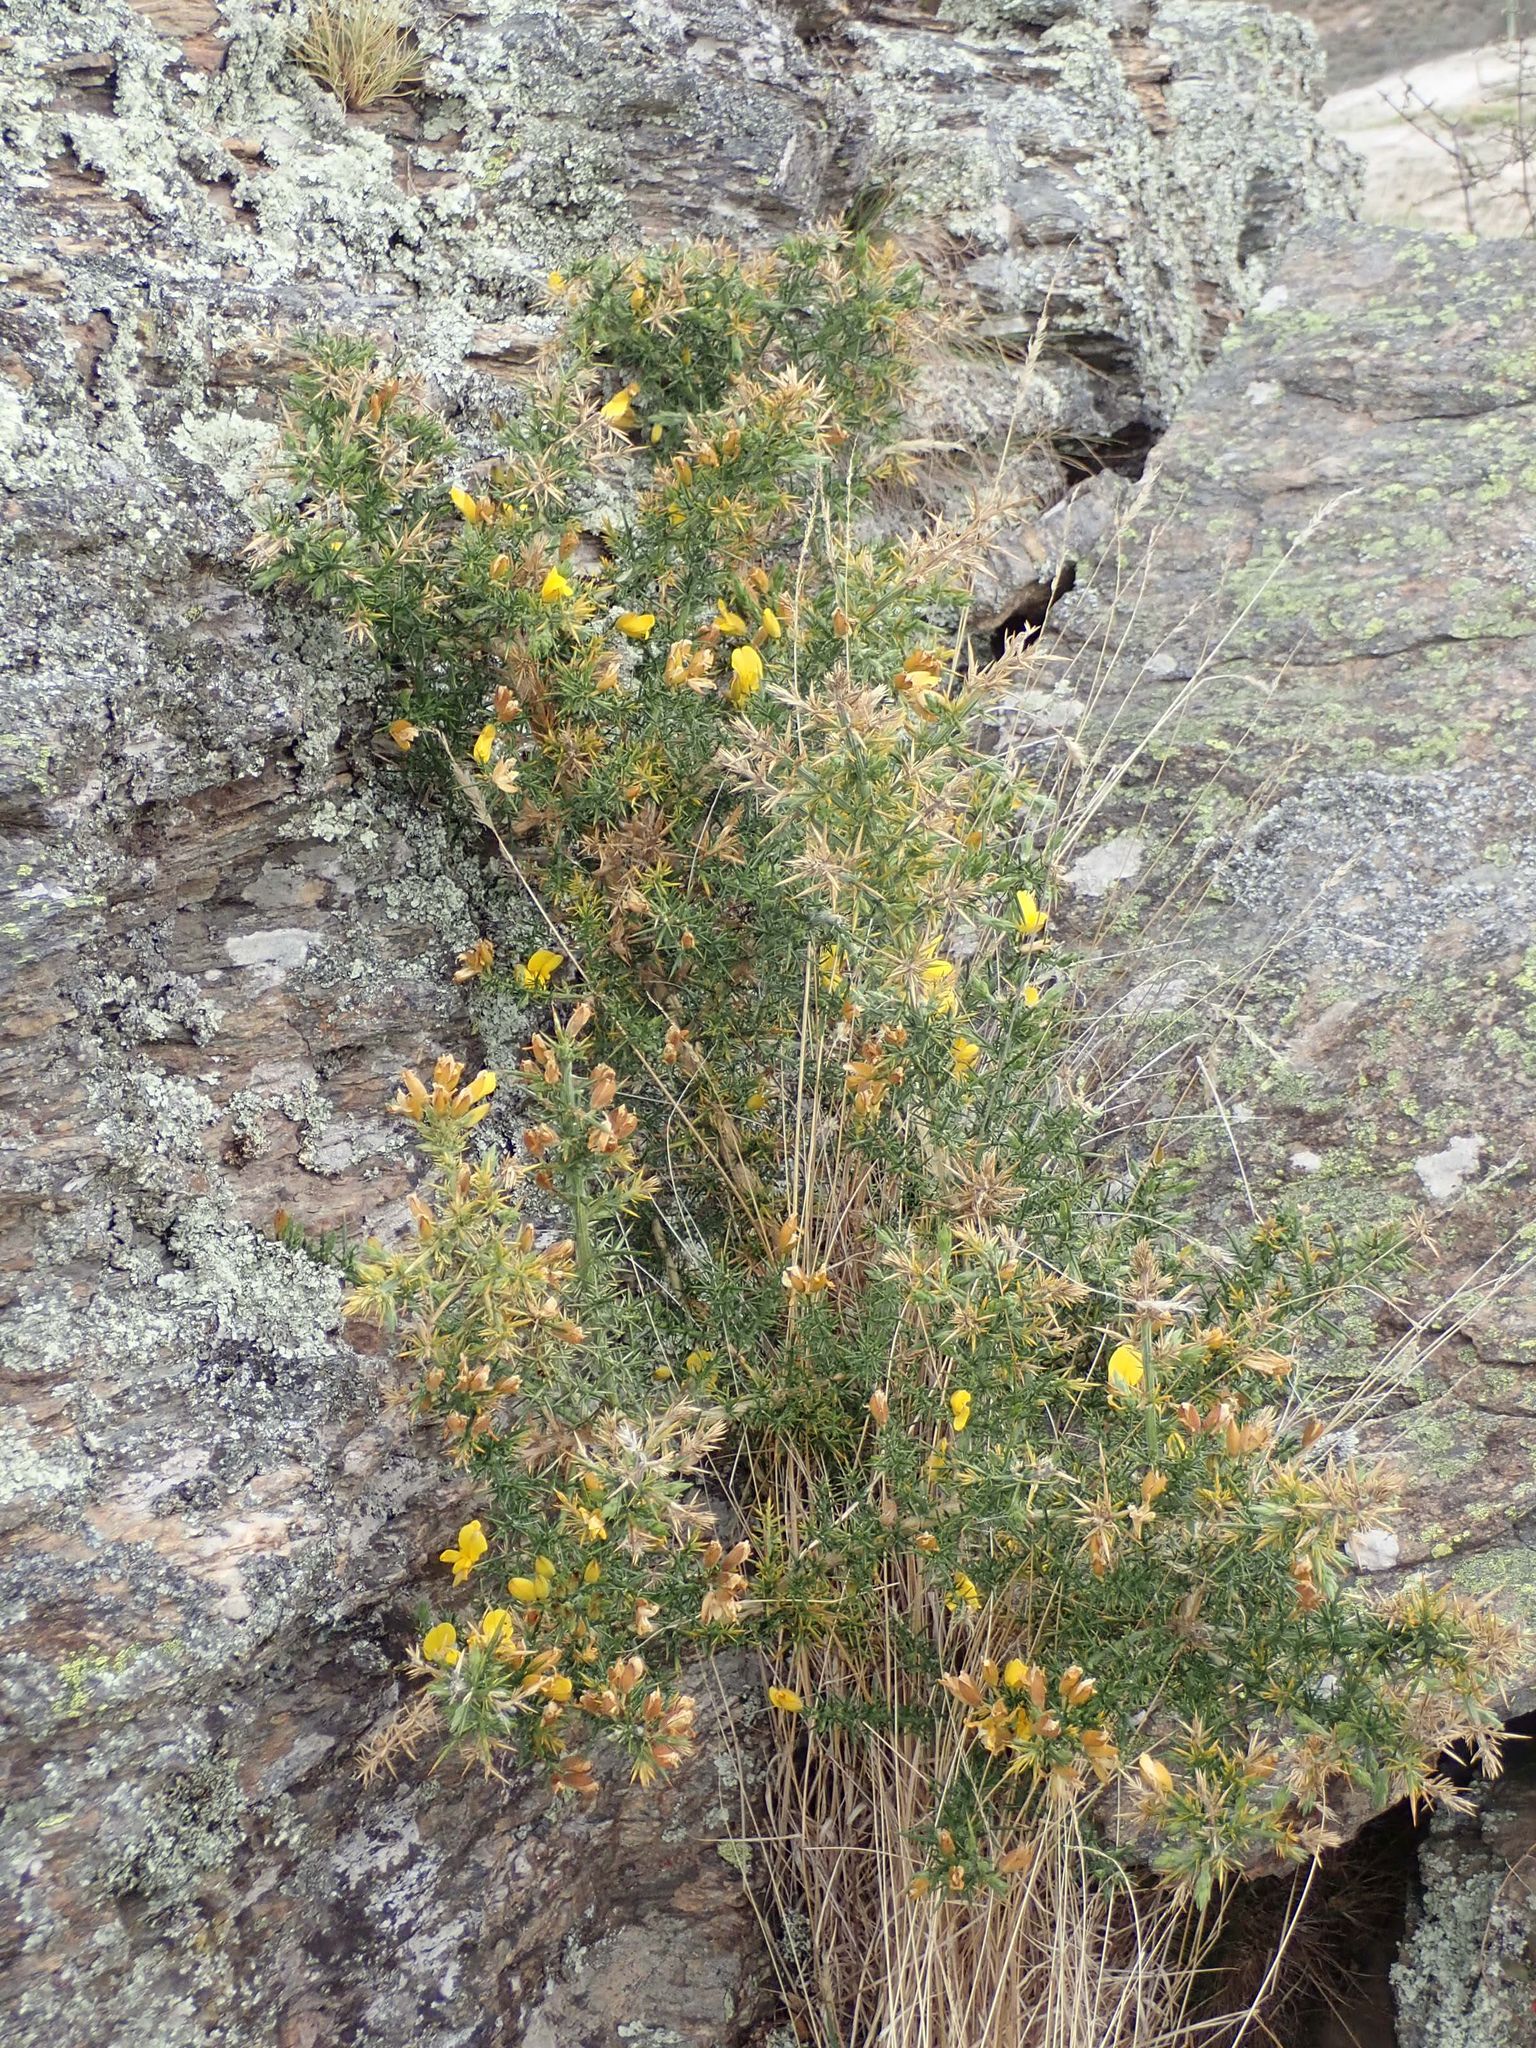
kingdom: Plantae
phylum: Tracheophyta
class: Magnoliopsida
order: Fabales
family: Fabaceae
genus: Ulex
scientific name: Ulex europaeus
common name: Common gorse
